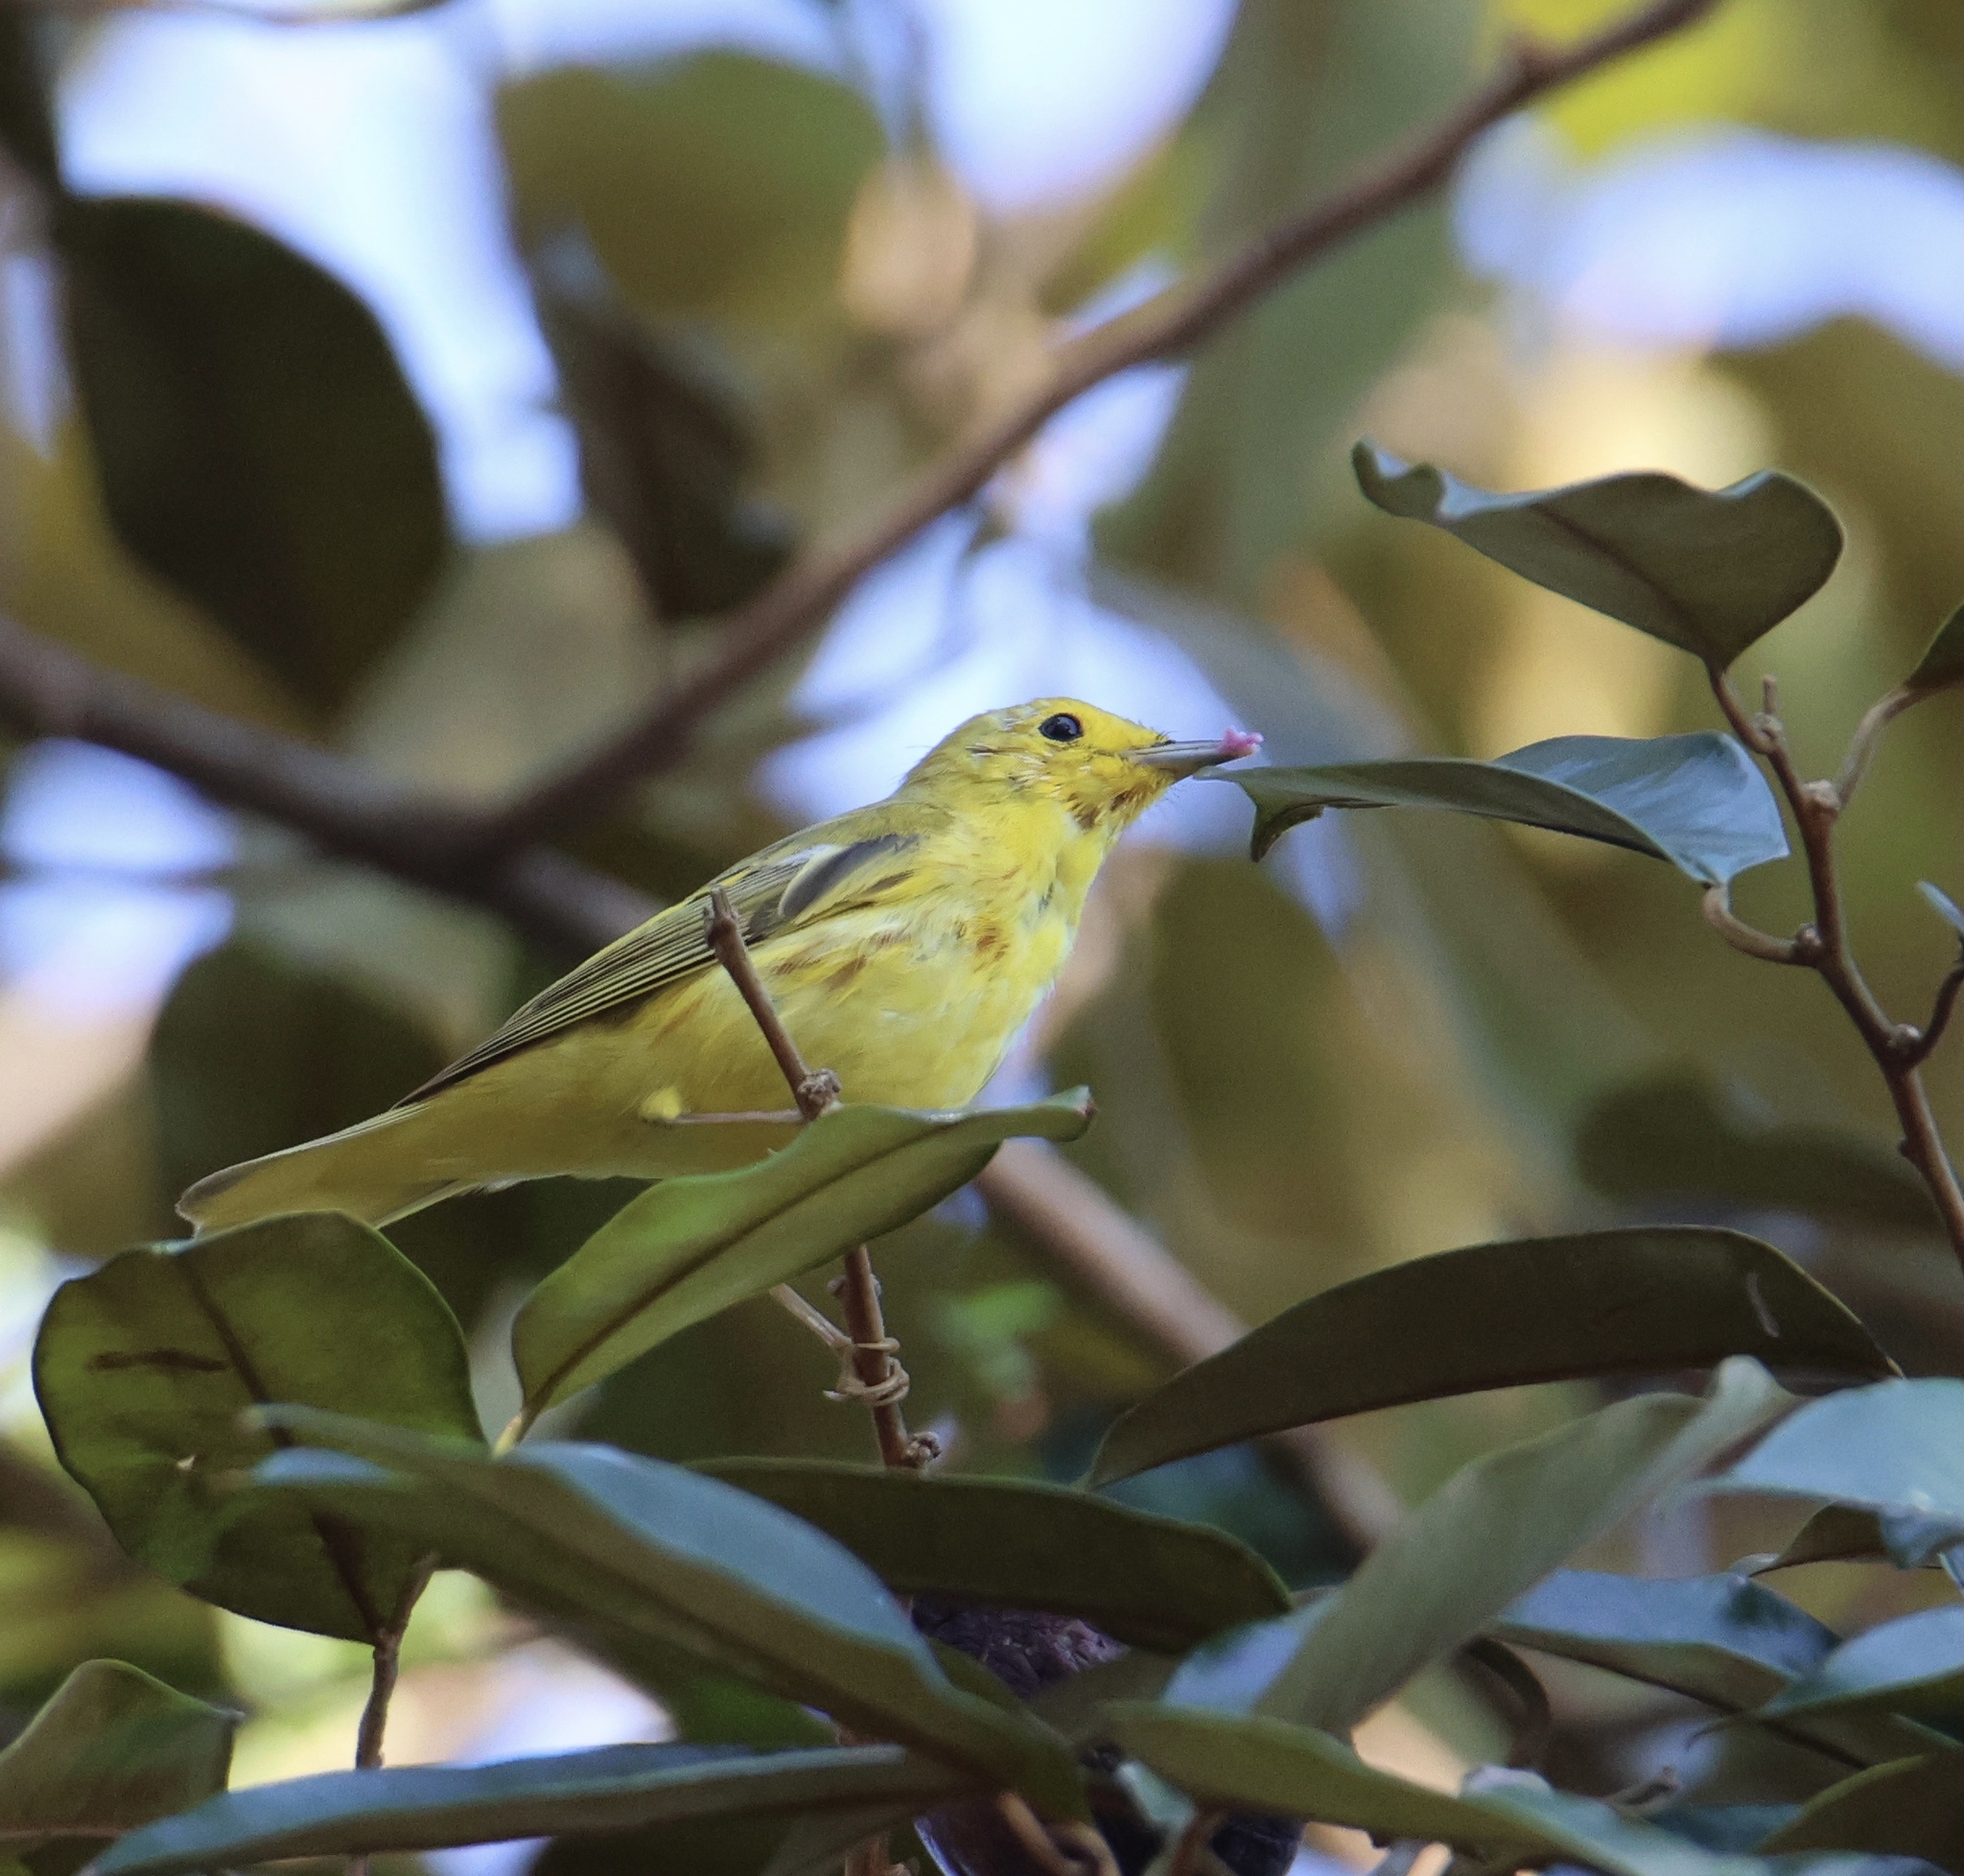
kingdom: Animalia
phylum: Chordata
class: Aves
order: Passeriformes
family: Parulidae
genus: Setophaga
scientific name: Setophaga petechia
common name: Yellow warbler
